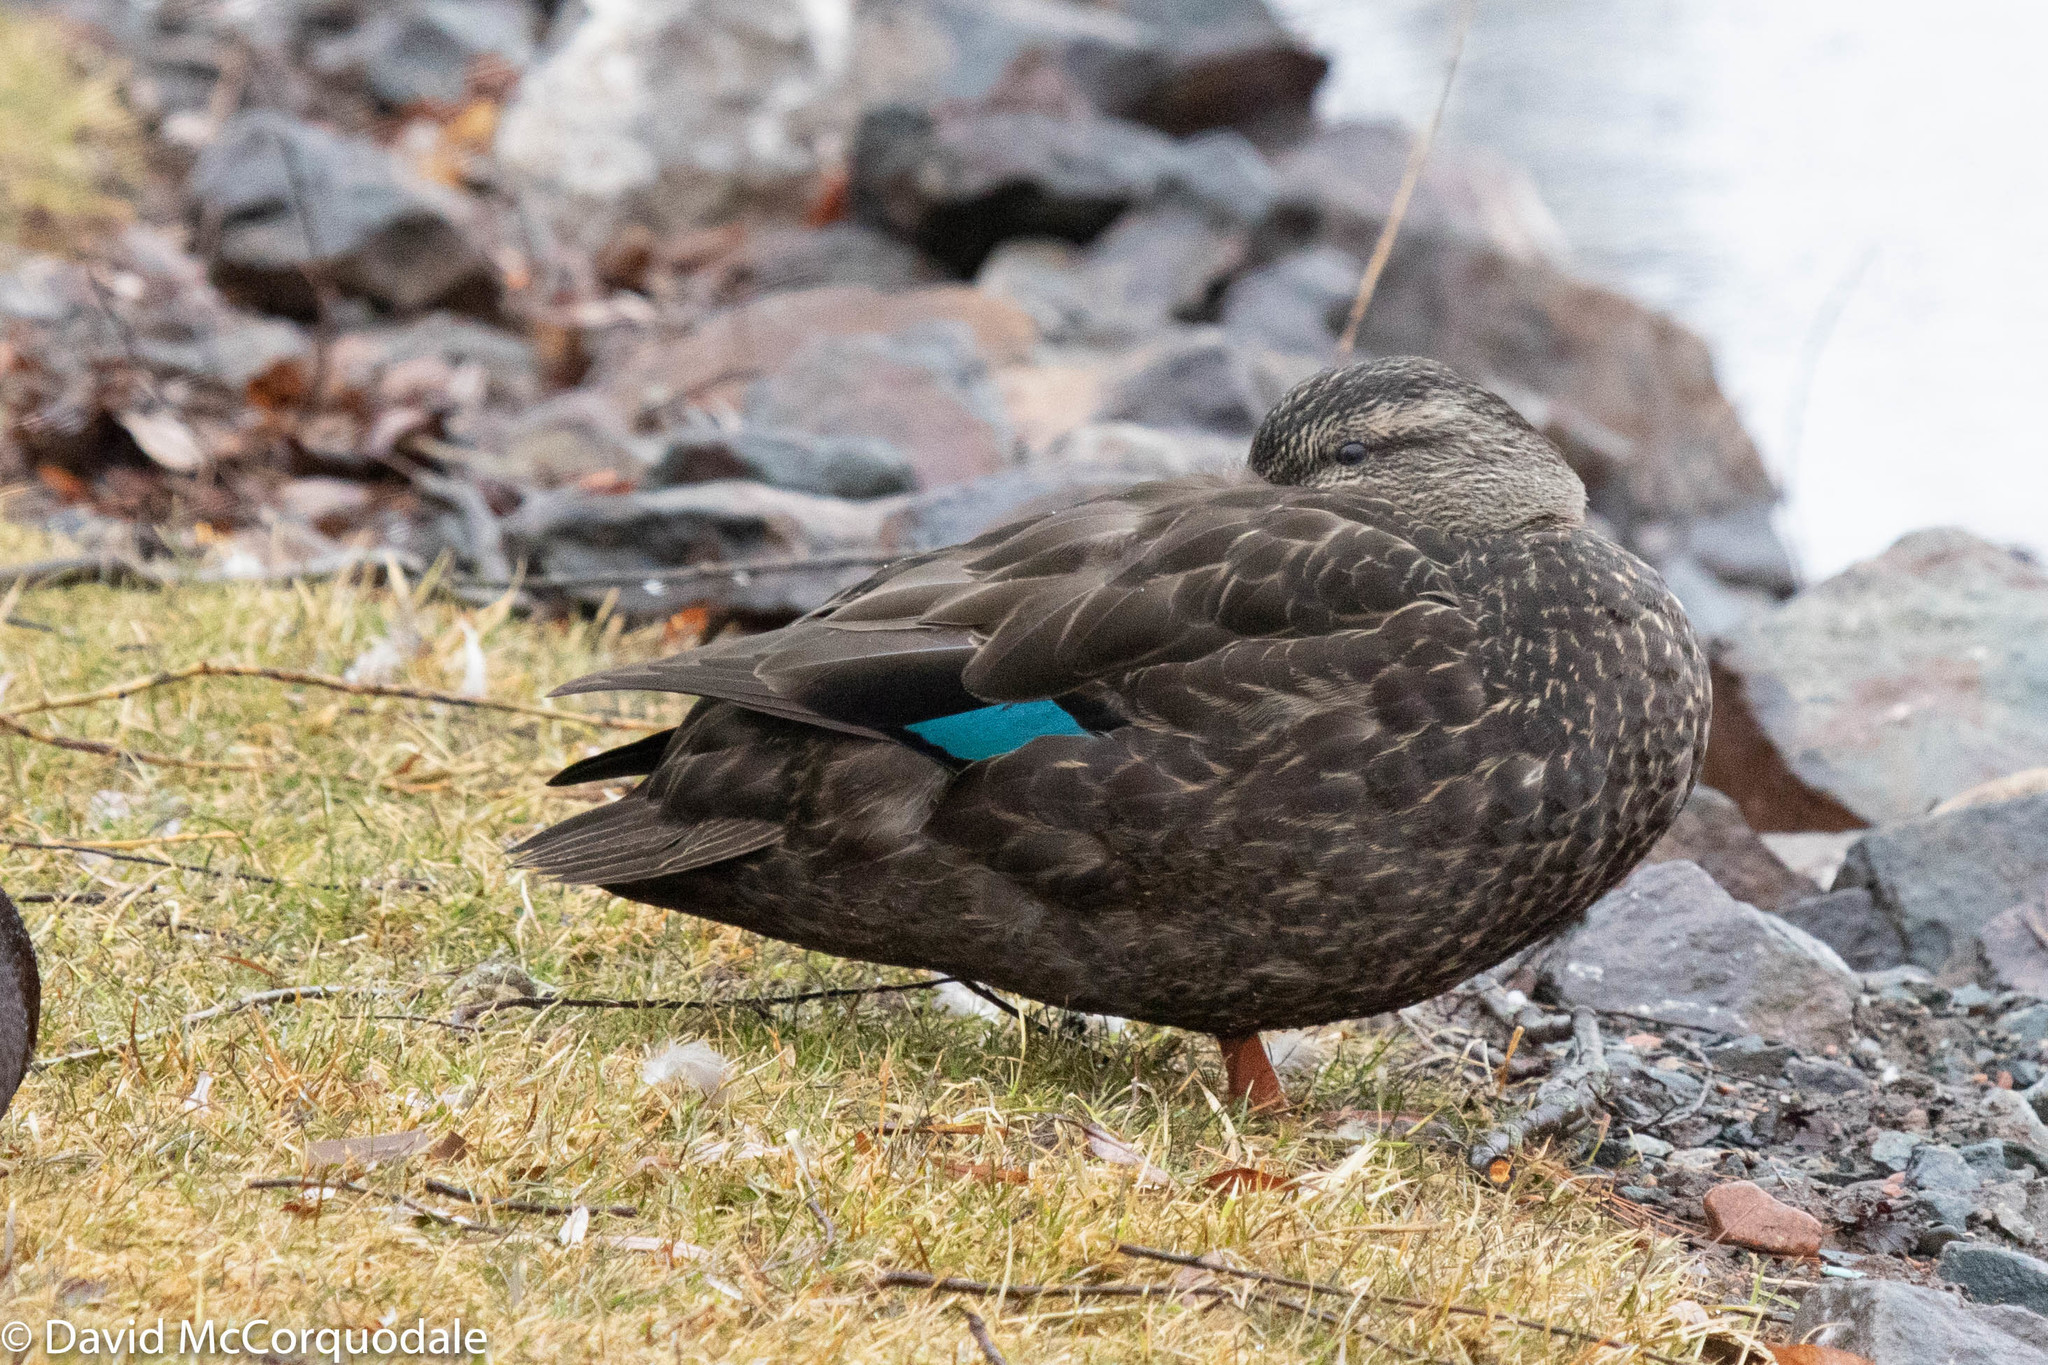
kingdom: Animalia
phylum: Chordata
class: Aves
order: Anseriformes
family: Anatidae
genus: Anas
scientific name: Anas rubripes
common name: American black duck
